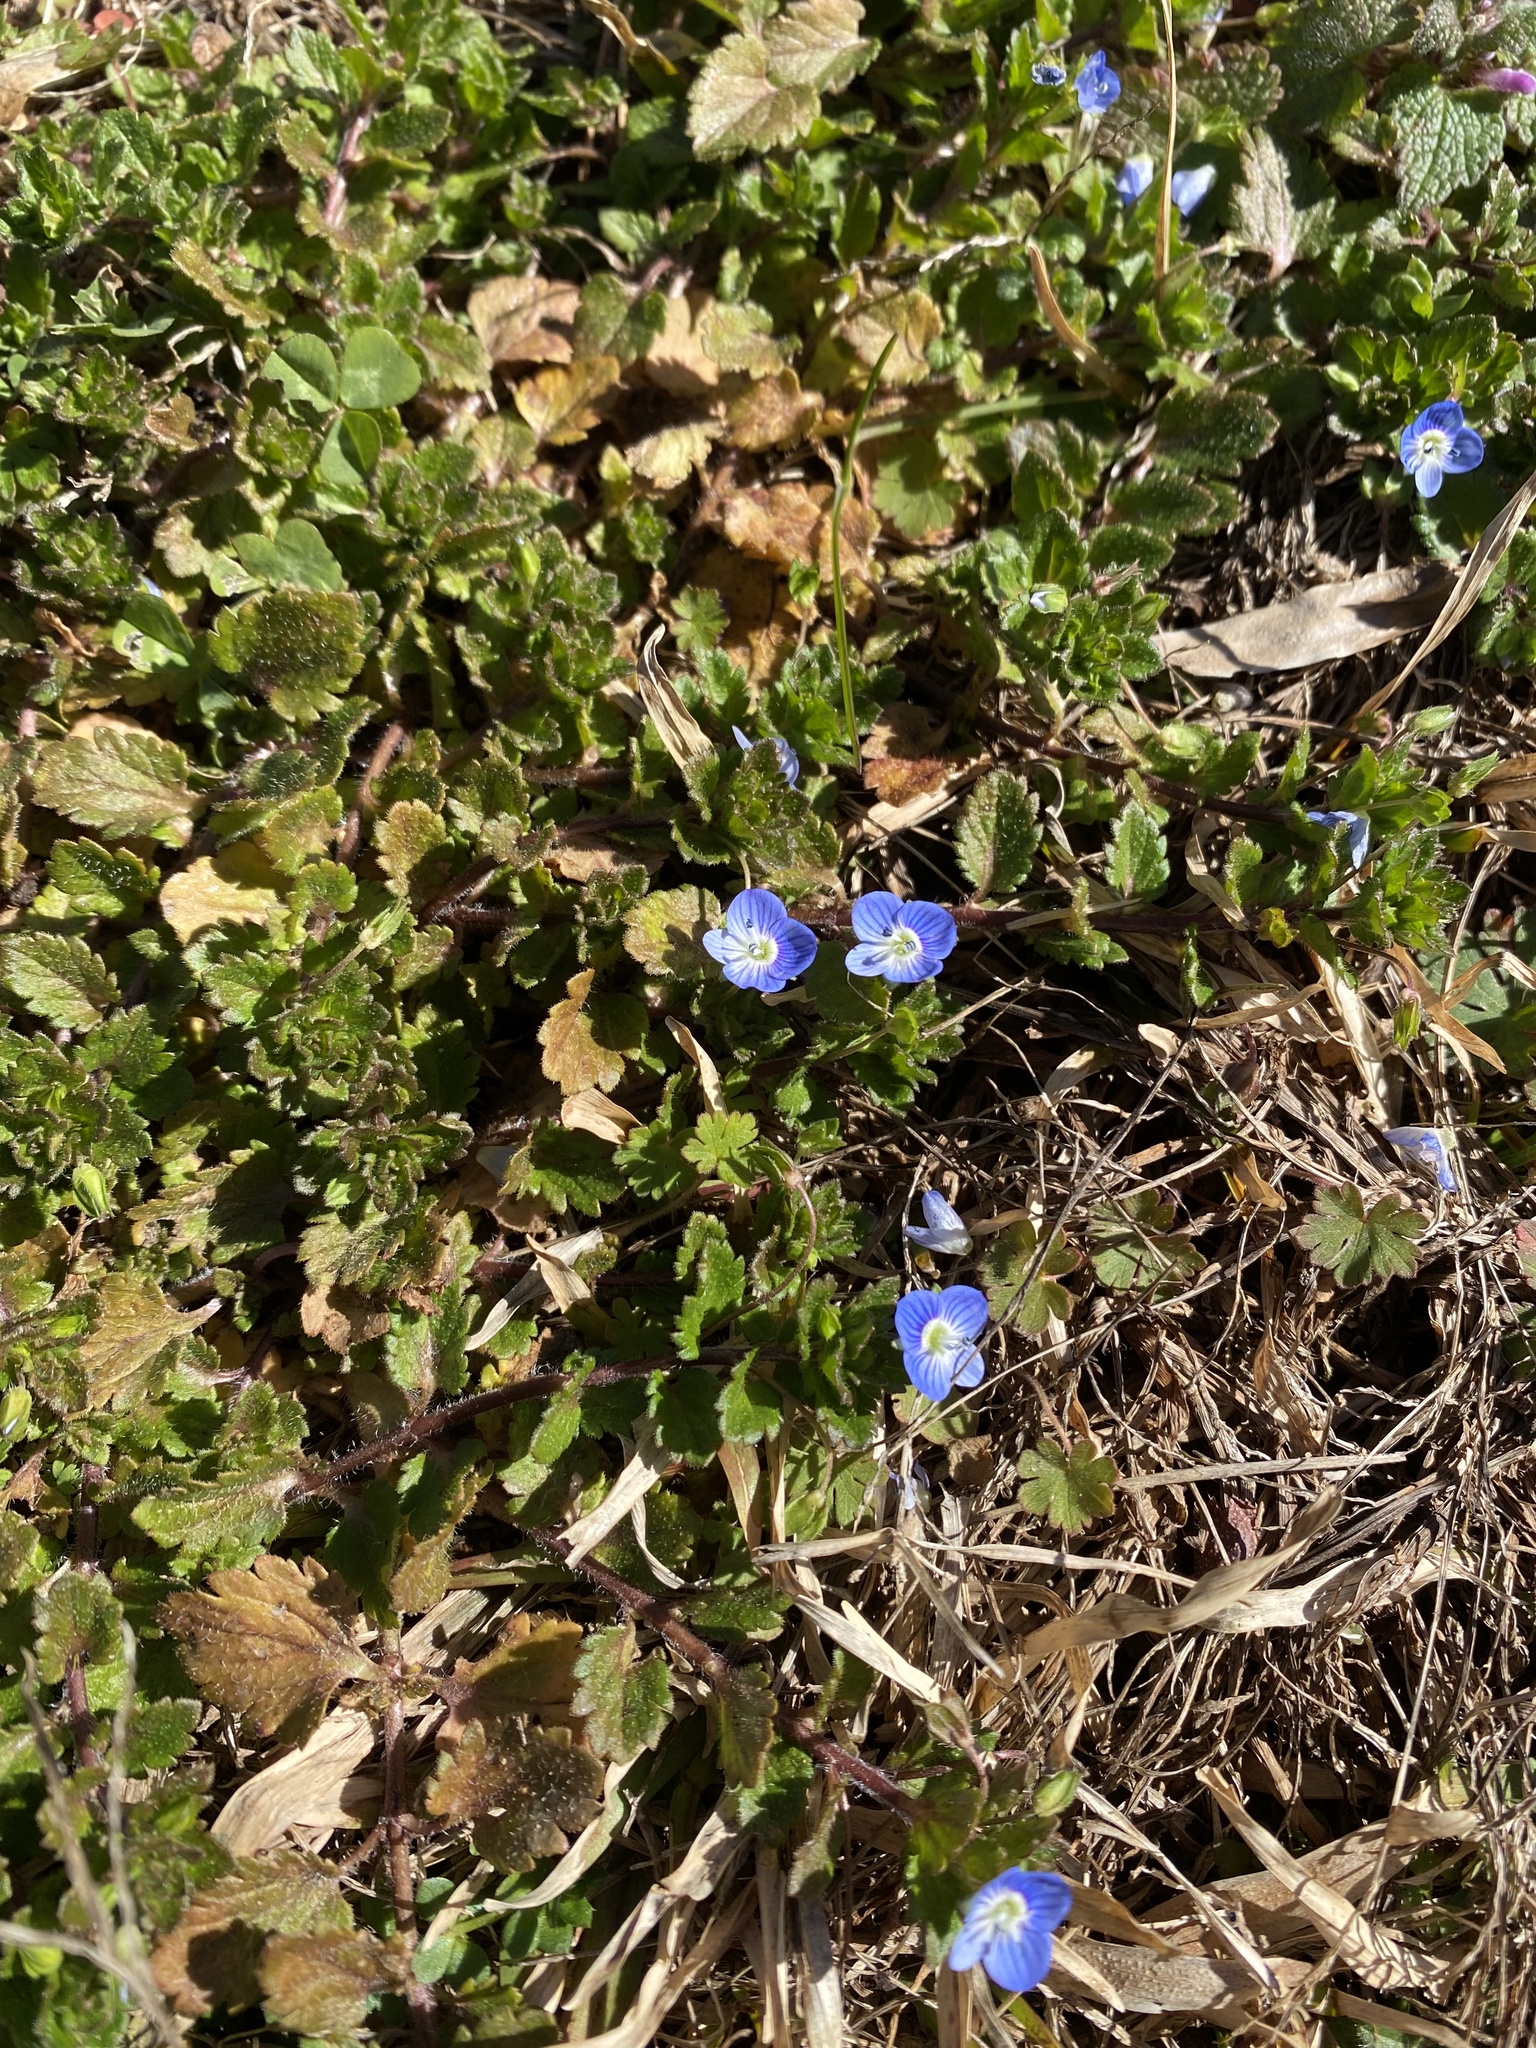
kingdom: Plantae
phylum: Tracheophyta
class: Magnoliopsida
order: Lamiales
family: Plantaginaceae
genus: Veronica
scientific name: Veronica persica
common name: Common field-speedwell
